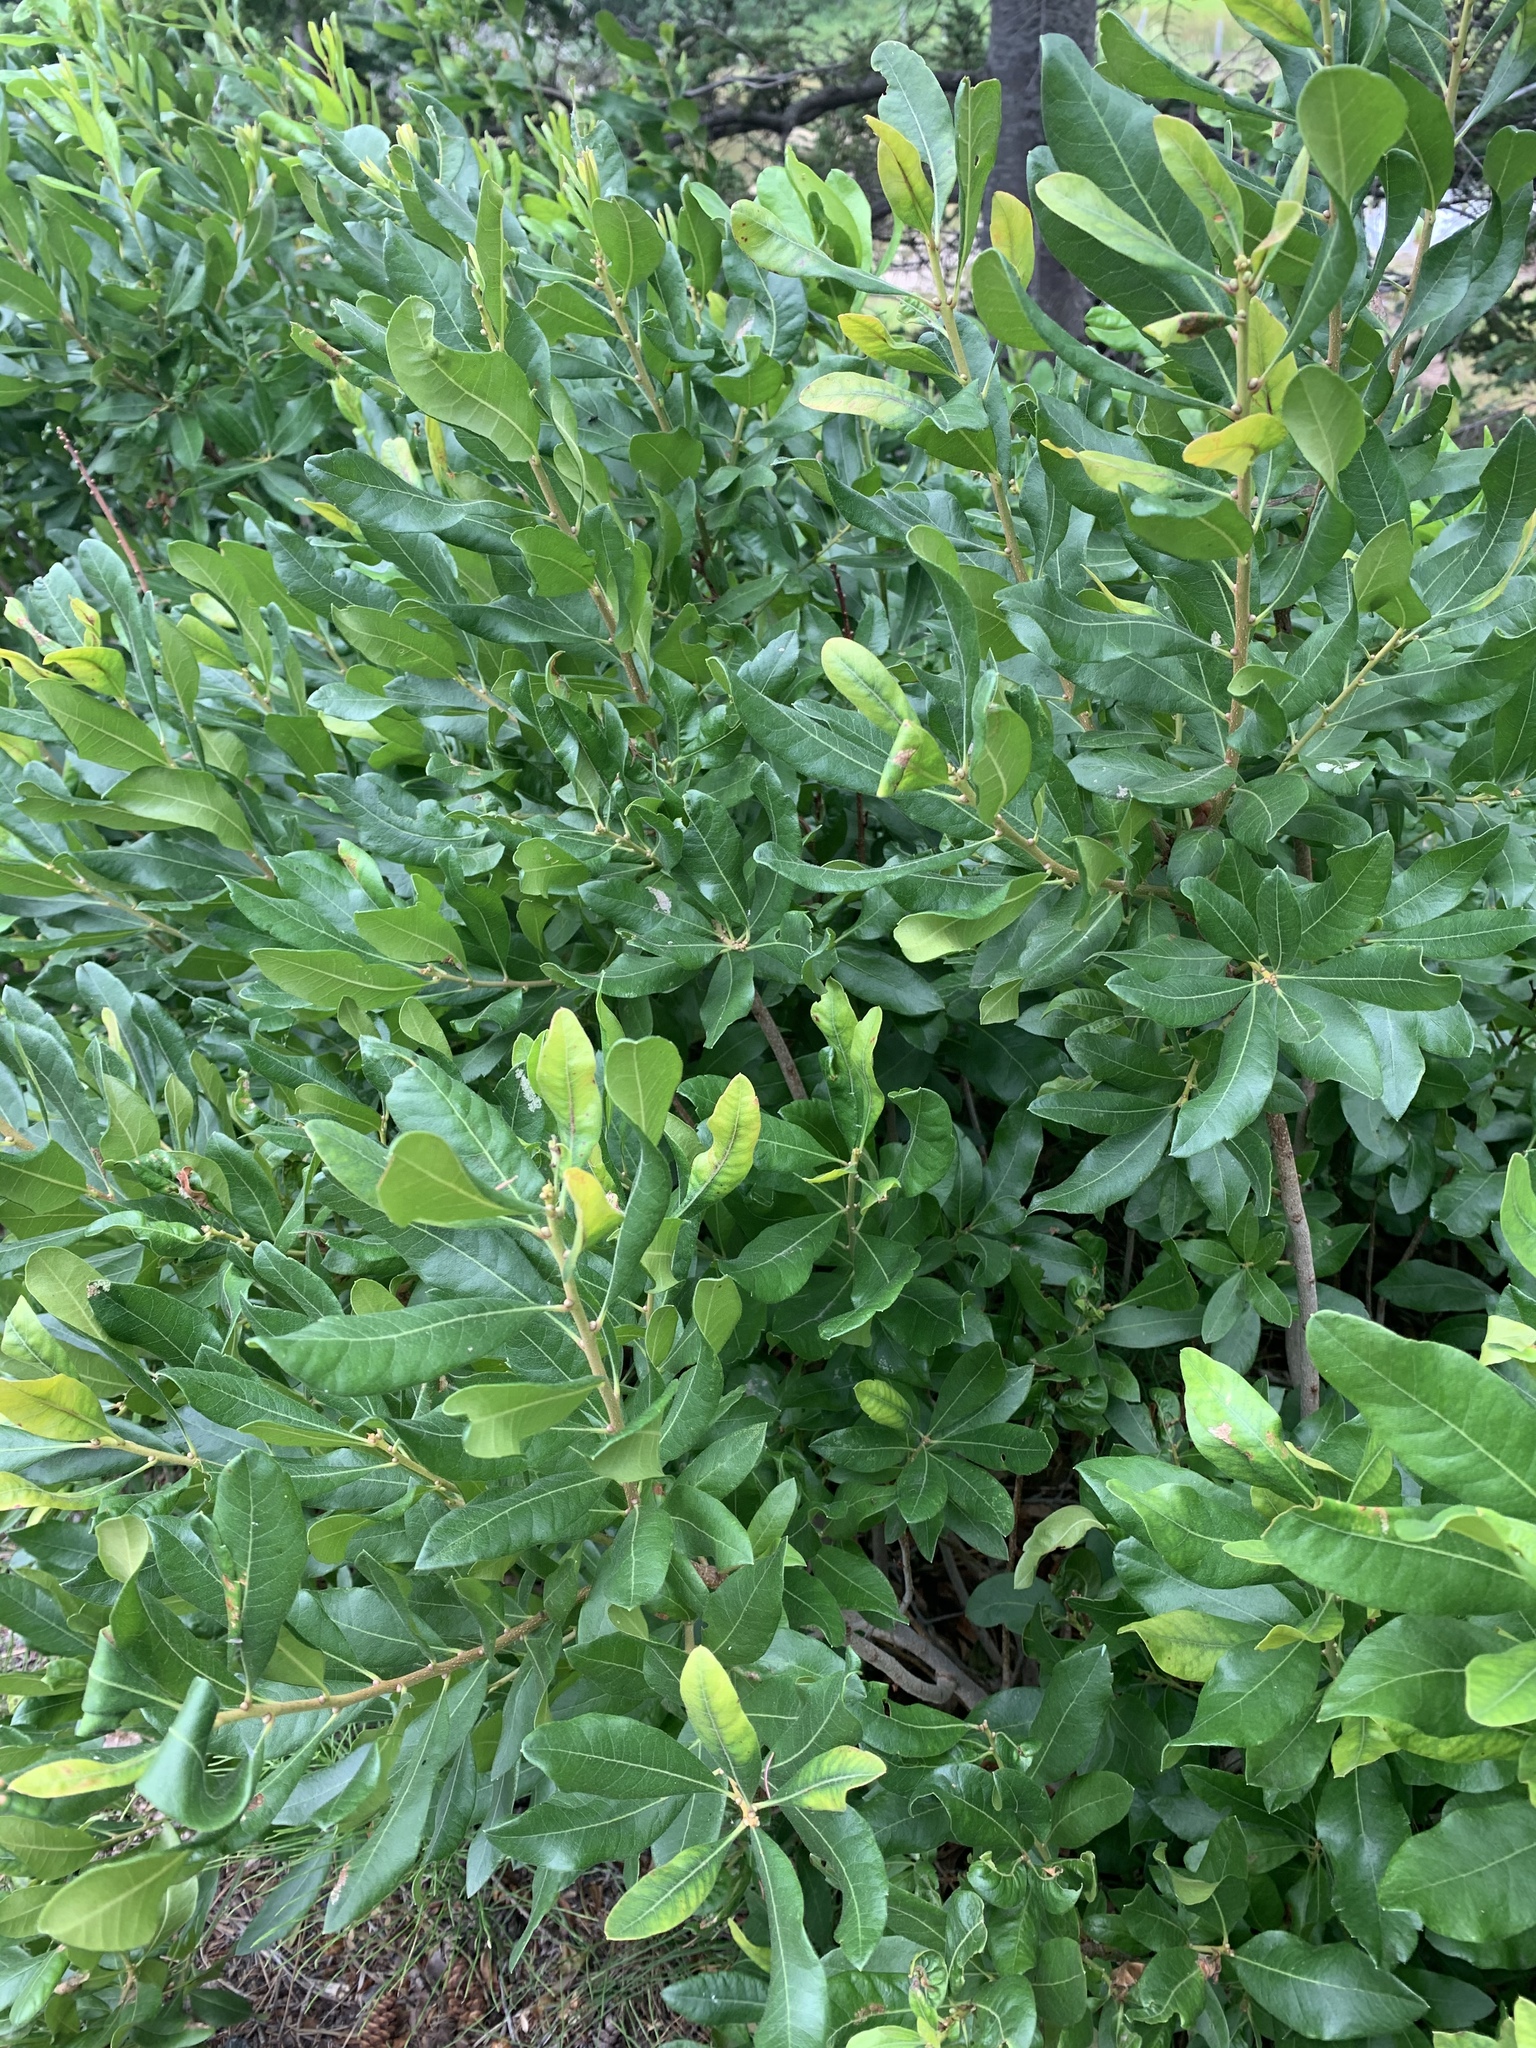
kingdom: Plantae
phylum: Tracheophyta
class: Magnoliopsida
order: Fagales
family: Myricaceae
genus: Morella
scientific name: Morella pensylvanica
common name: Northern bayberry
